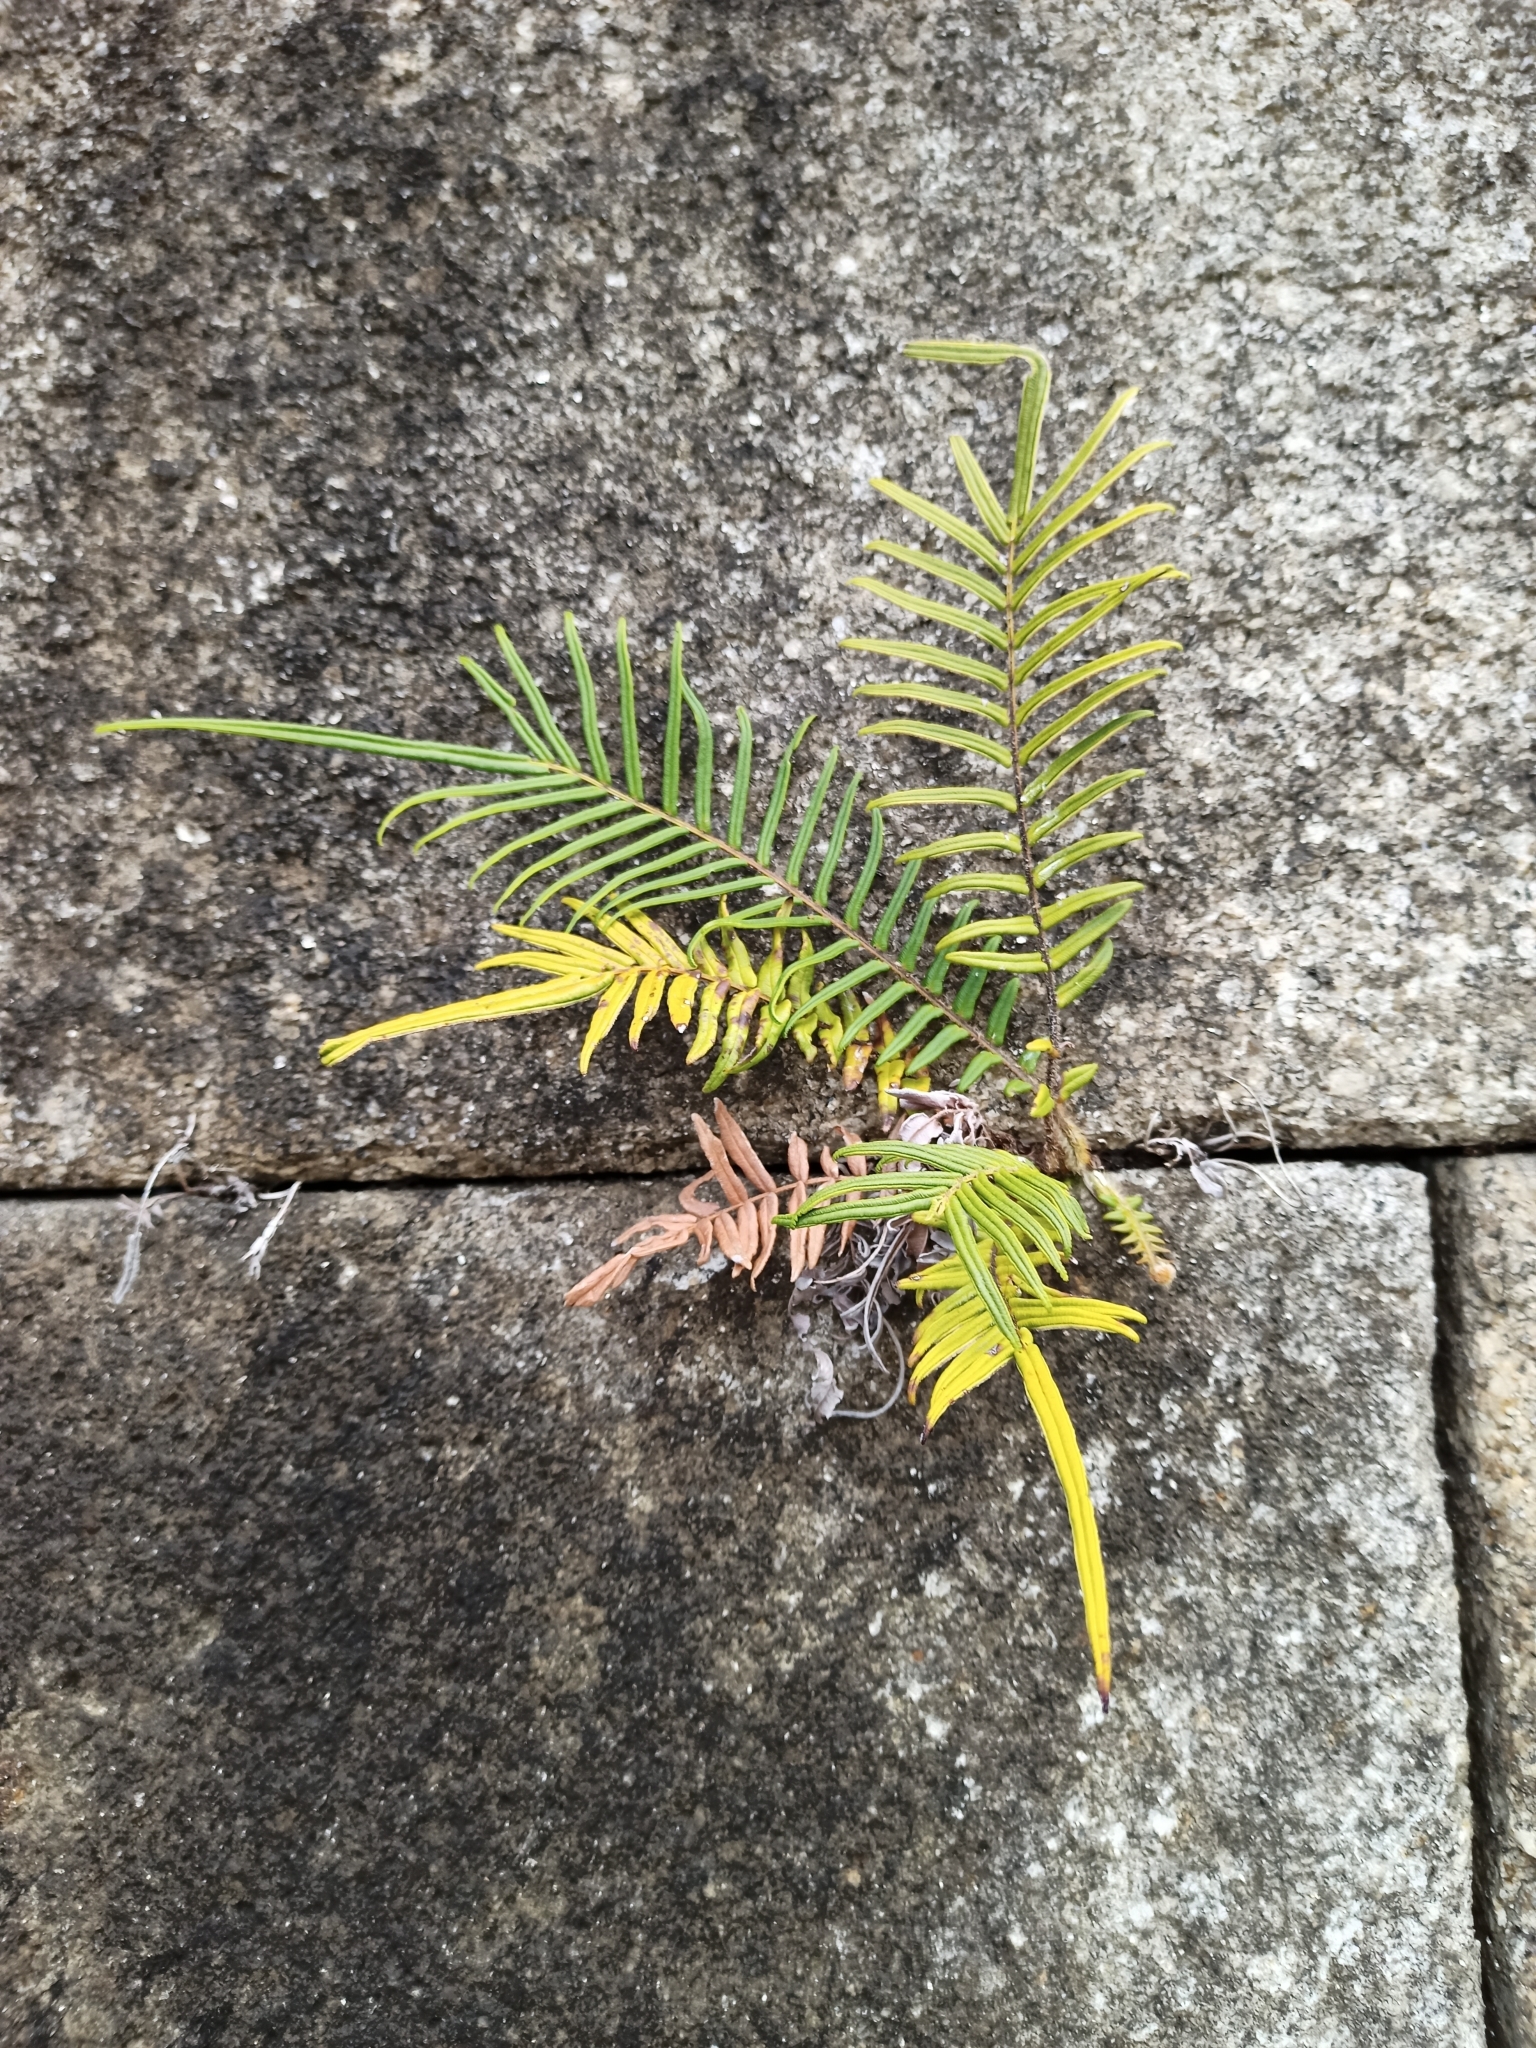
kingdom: Plantae
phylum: Tracheophyta
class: Polypodiopsida
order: Polypodiales
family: Pteridaceae
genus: Pteris
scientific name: Pteris vittata
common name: Ladder brake
